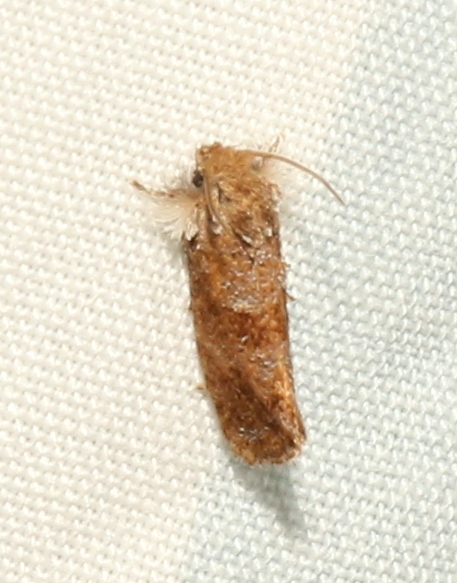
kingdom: Animalia
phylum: Arthropoda
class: Insecta
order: Lepidoptera
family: Tineidae
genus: Acrolophus
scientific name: Acrolophus panamae
